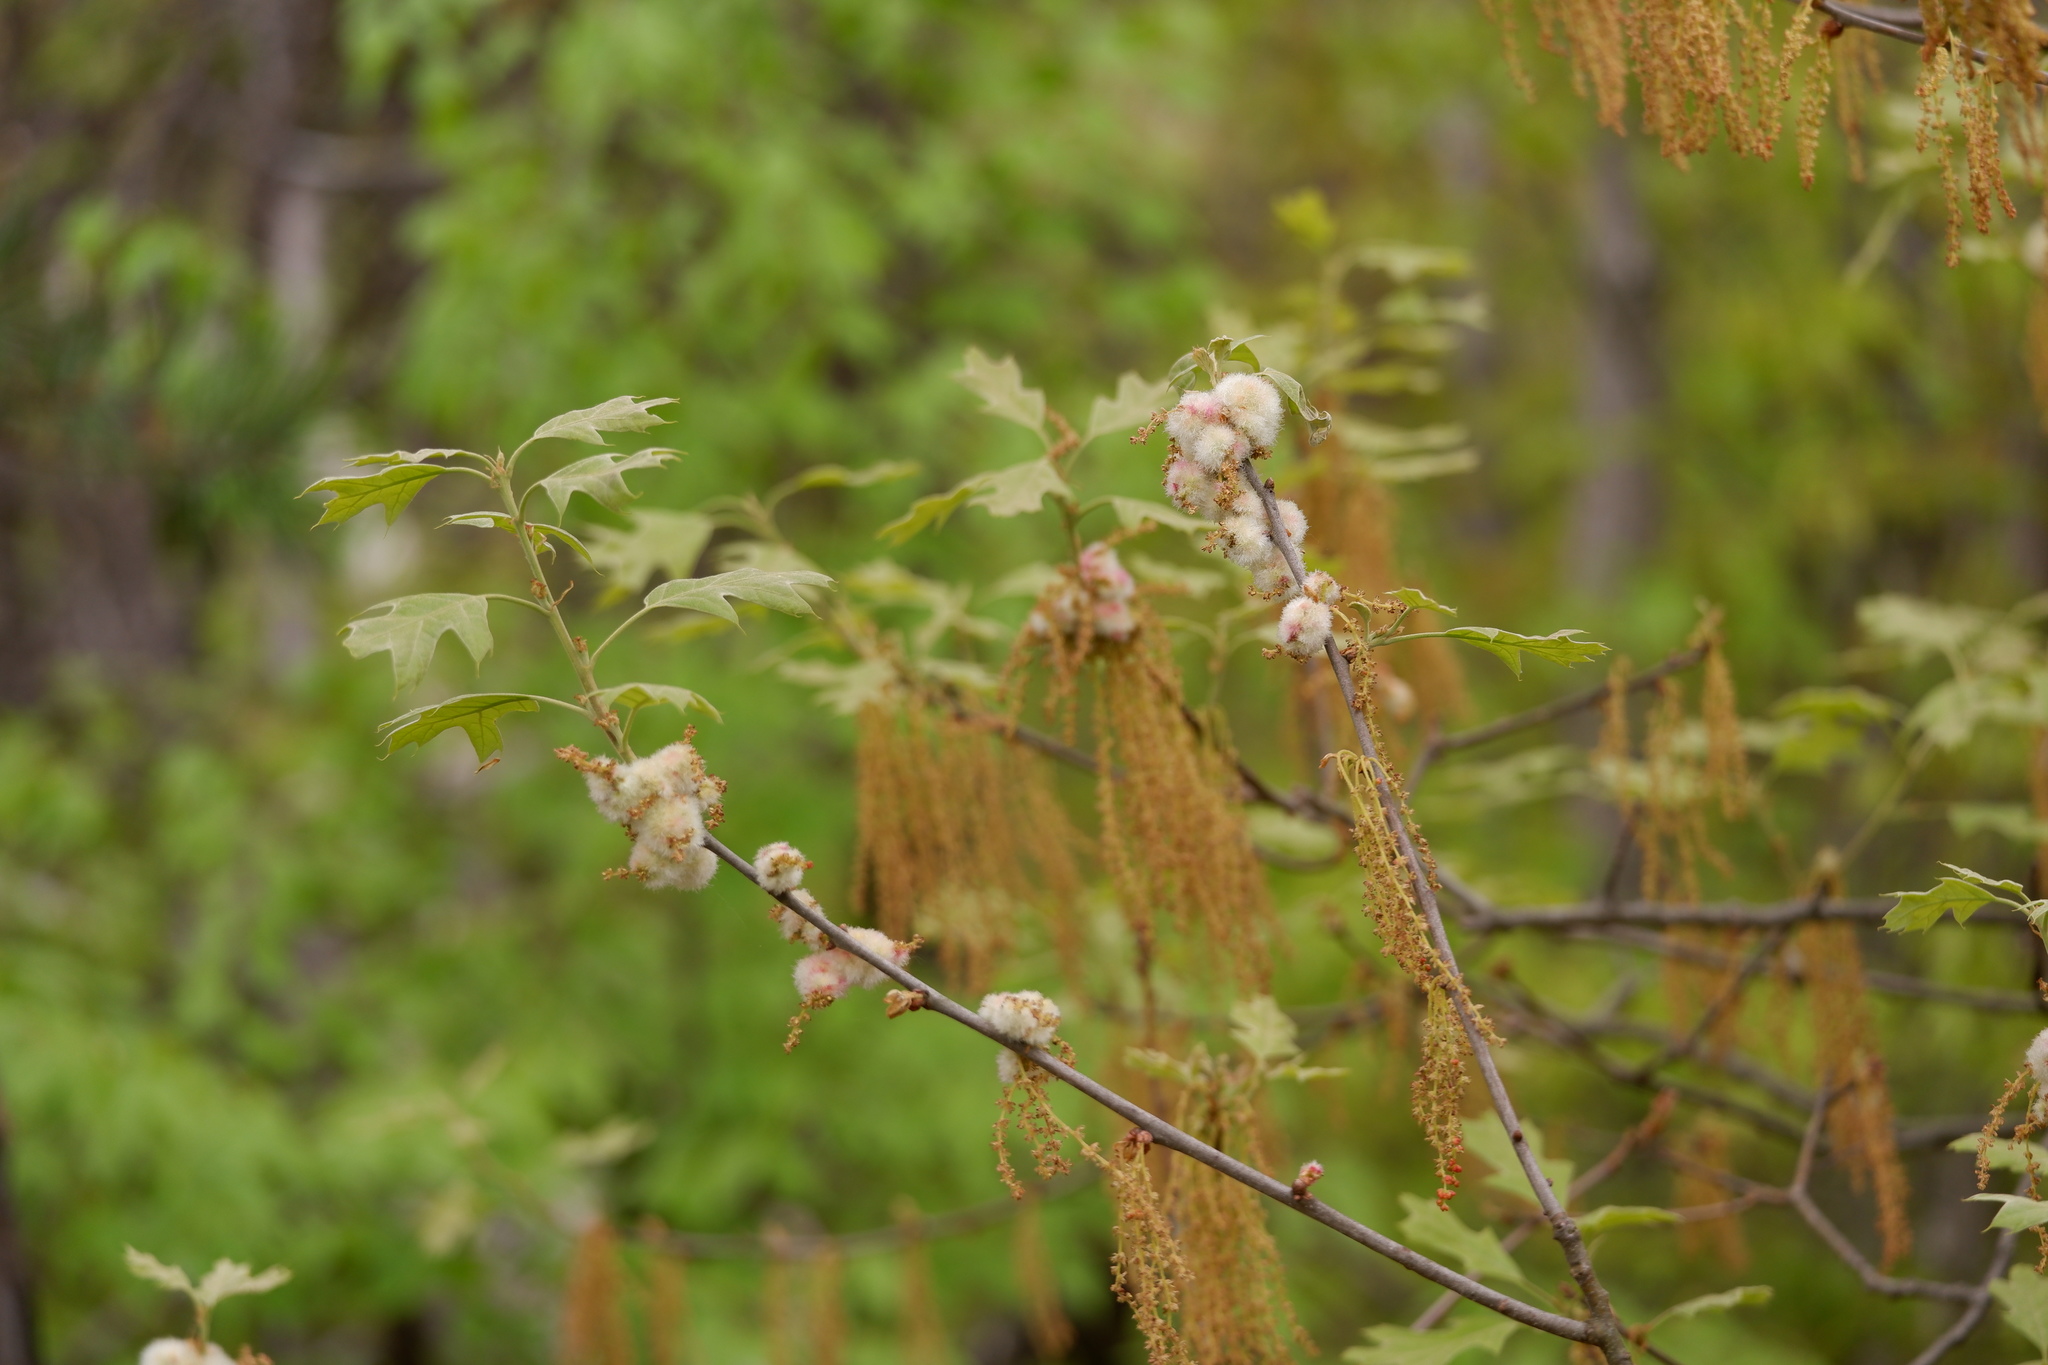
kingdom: Animalia
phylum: Arthropoda
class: Insecta
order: Hymenoptera
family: Cynipidae
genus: Callirhytis
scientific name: Callirhytis
